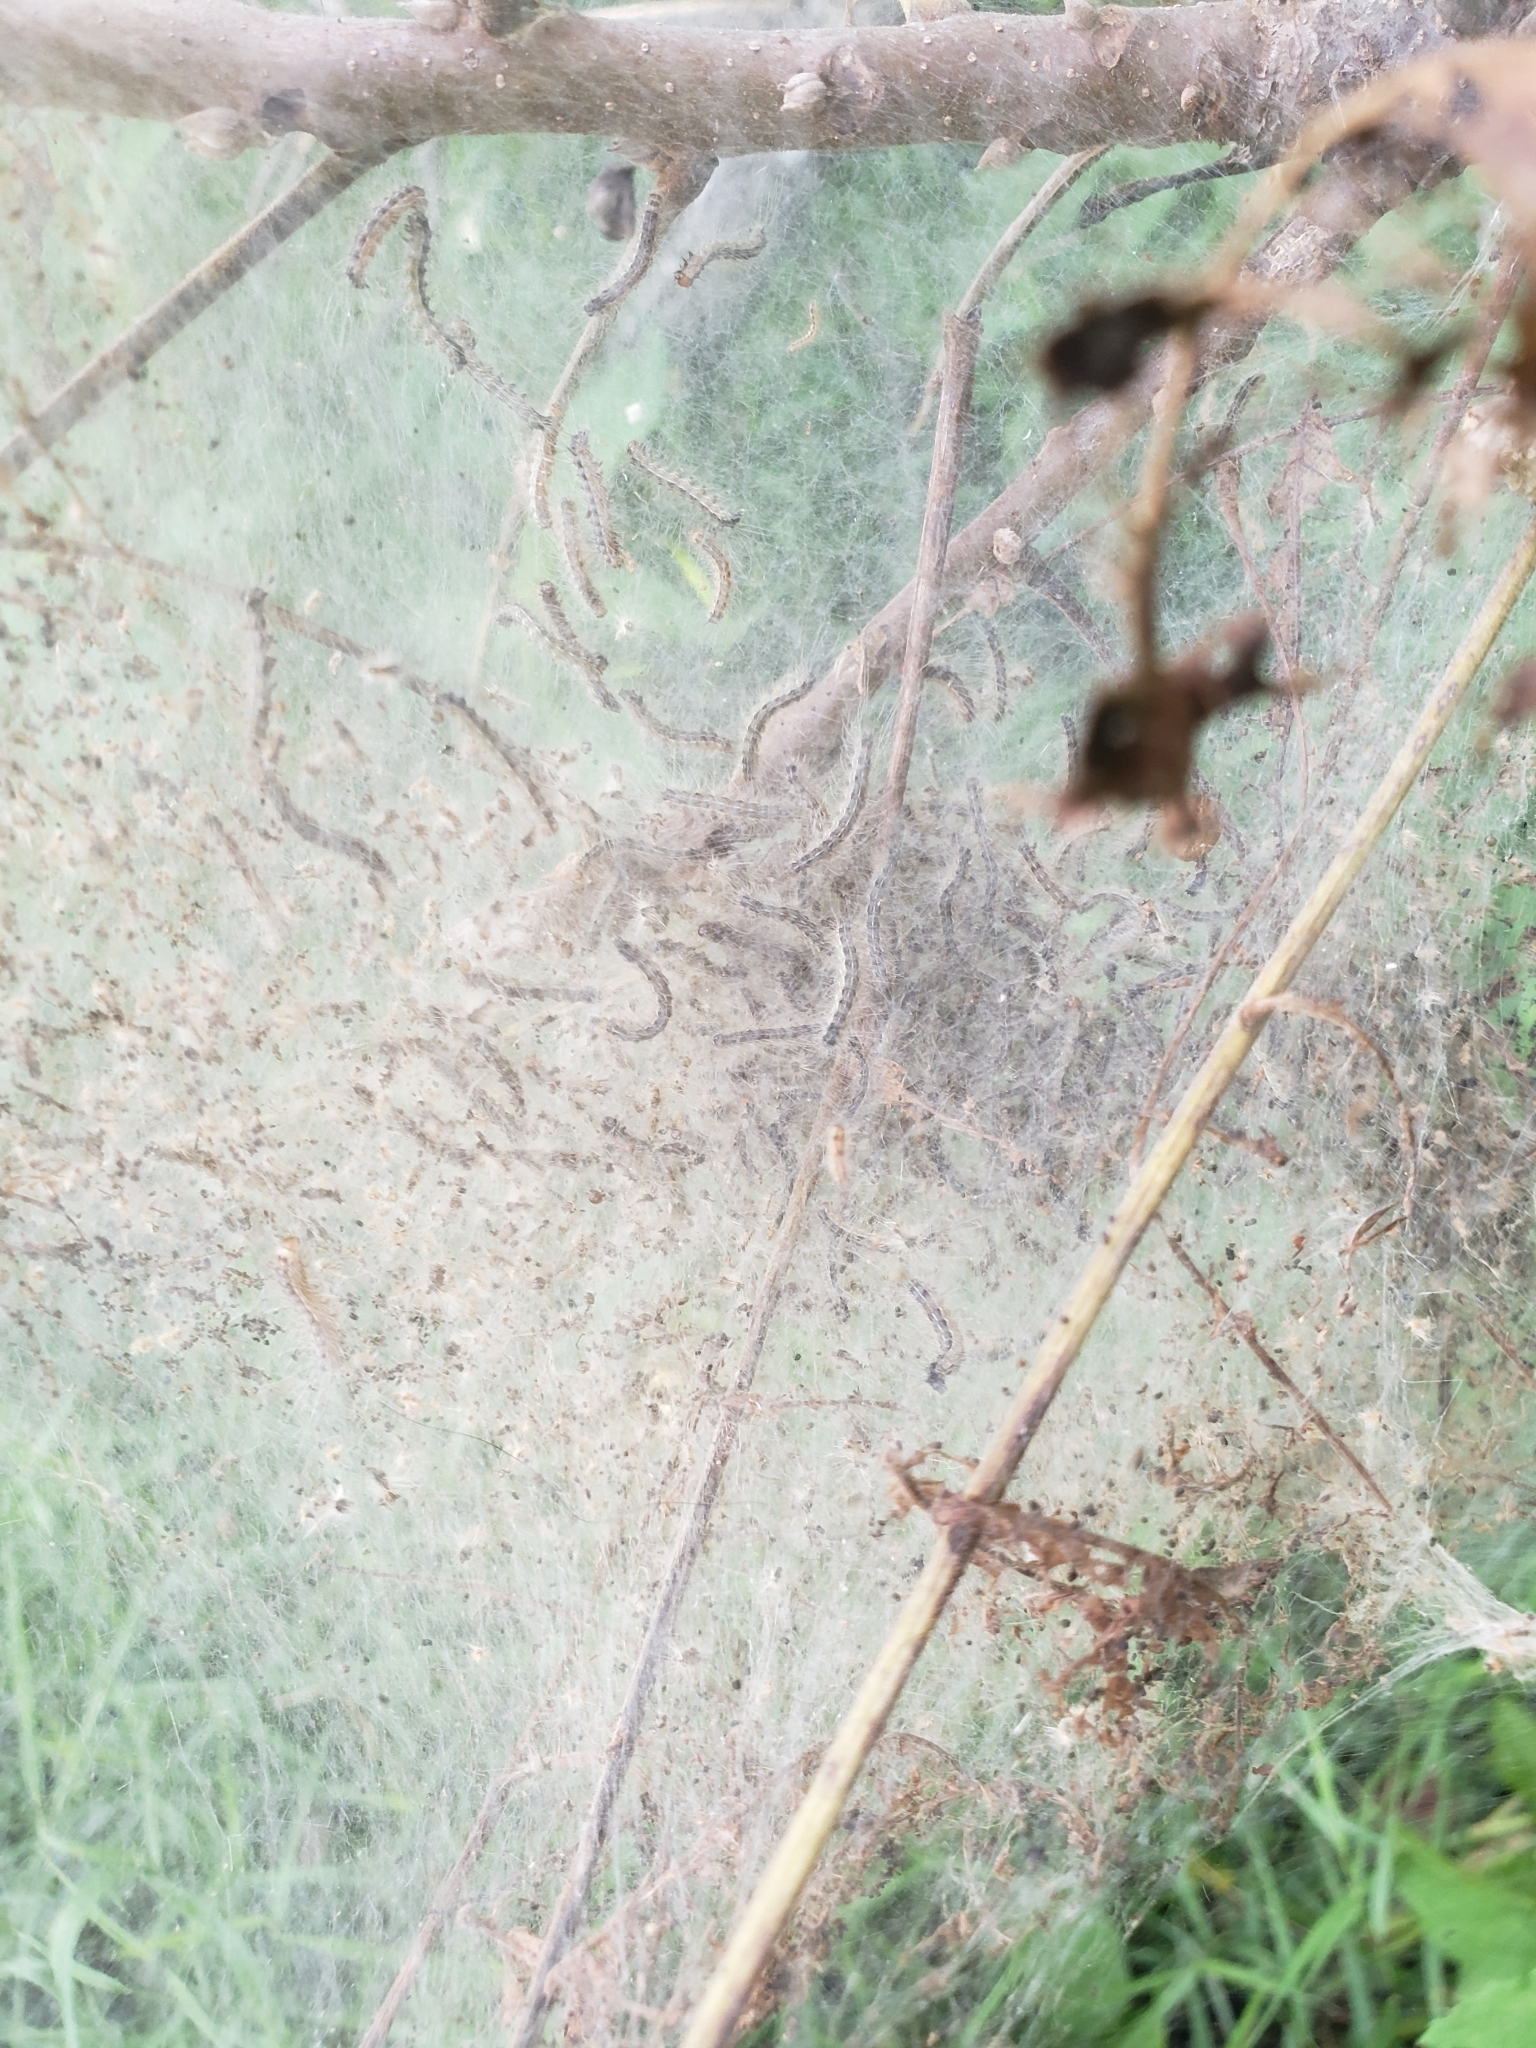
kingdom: Animalia
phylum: Arthropoda
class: Insecta
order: Lepidoptera
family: Erebidae
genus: Hyphantria
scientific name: Hyphantria cunea
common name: American white moth
